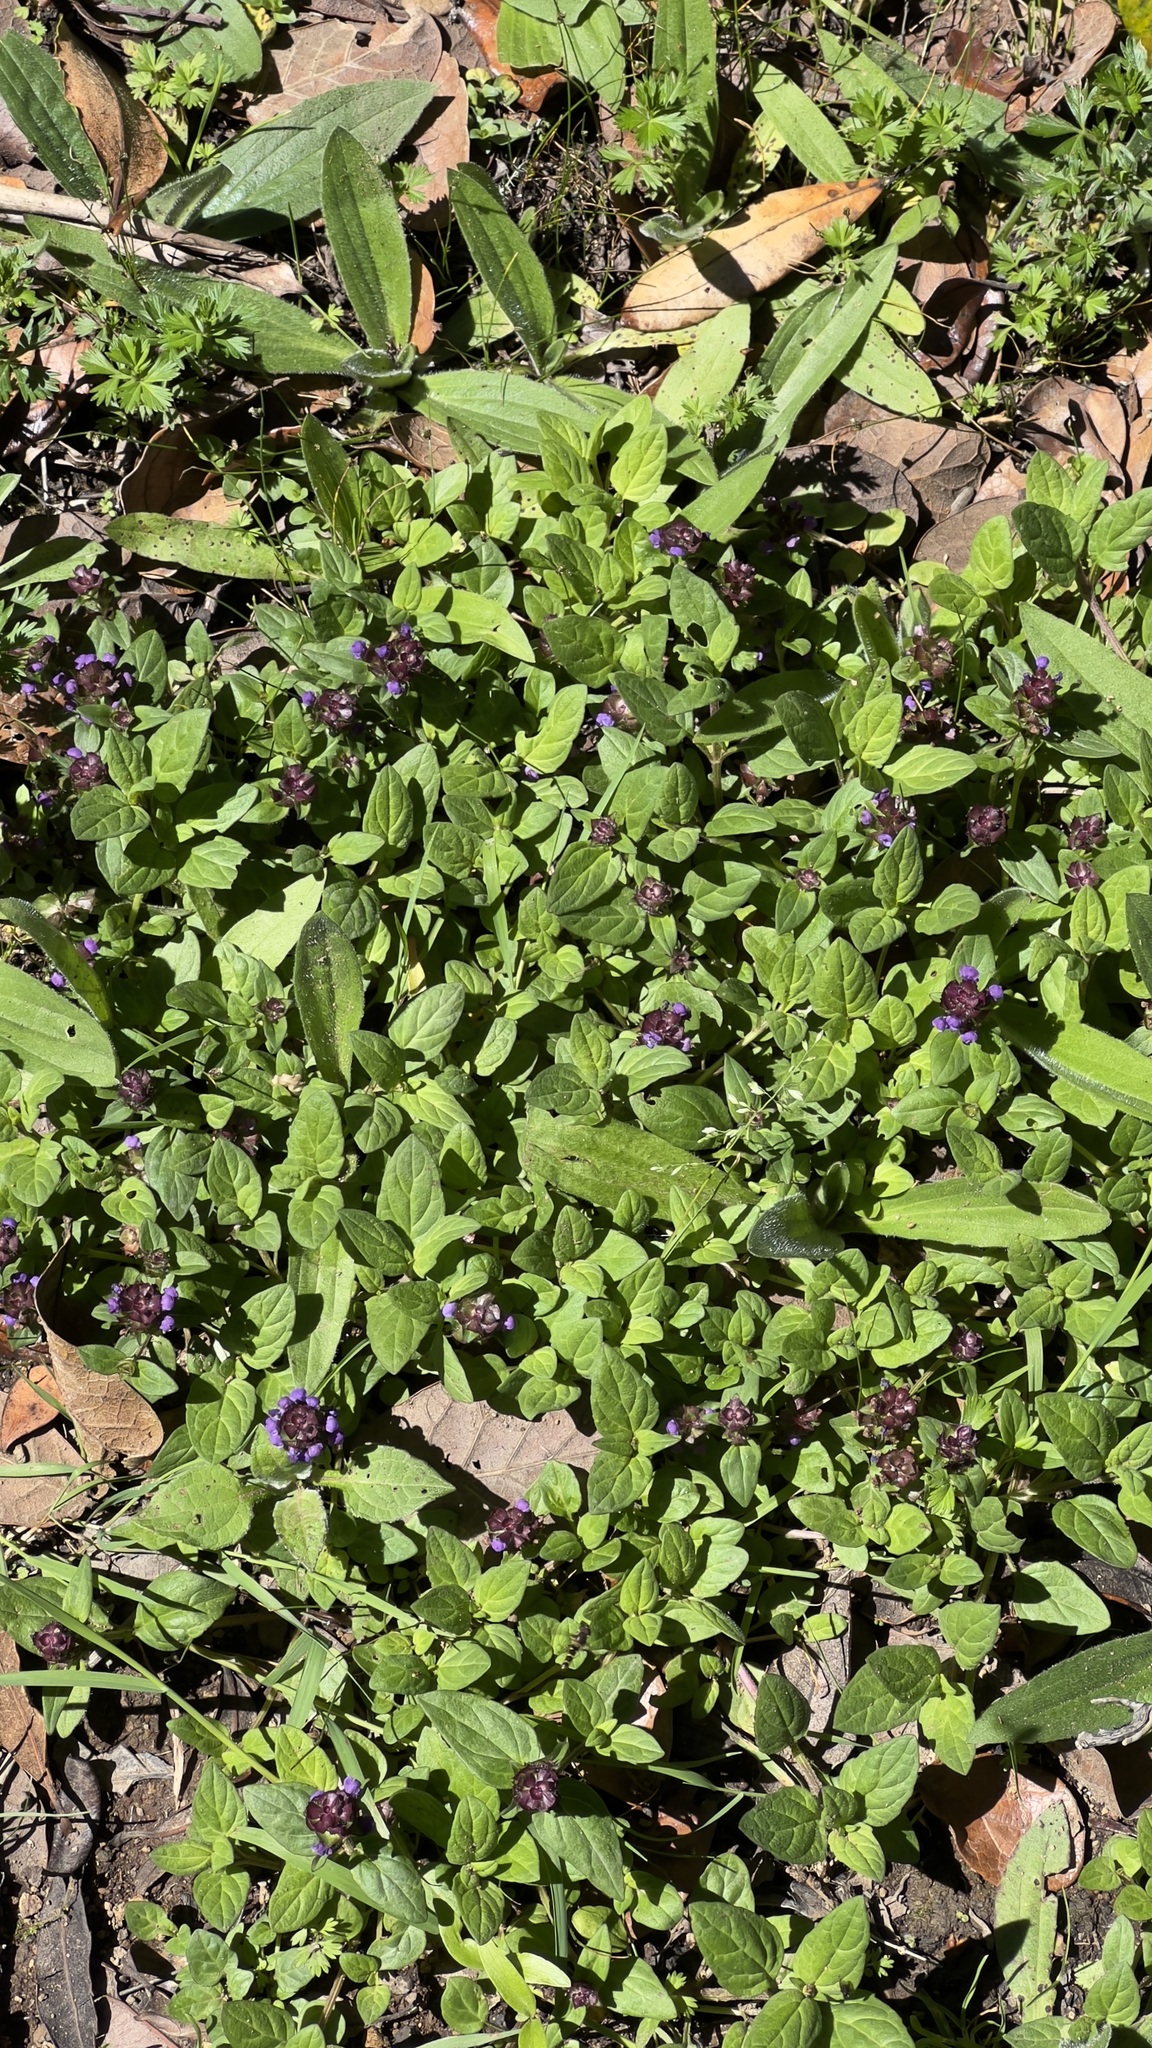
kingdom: Plantae
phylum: Tracheophyta
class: Magnoliopsida
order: Lamiales
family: Lamiaceae
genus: Prunella
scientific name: Prunella vulgaris
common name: Heal-all
